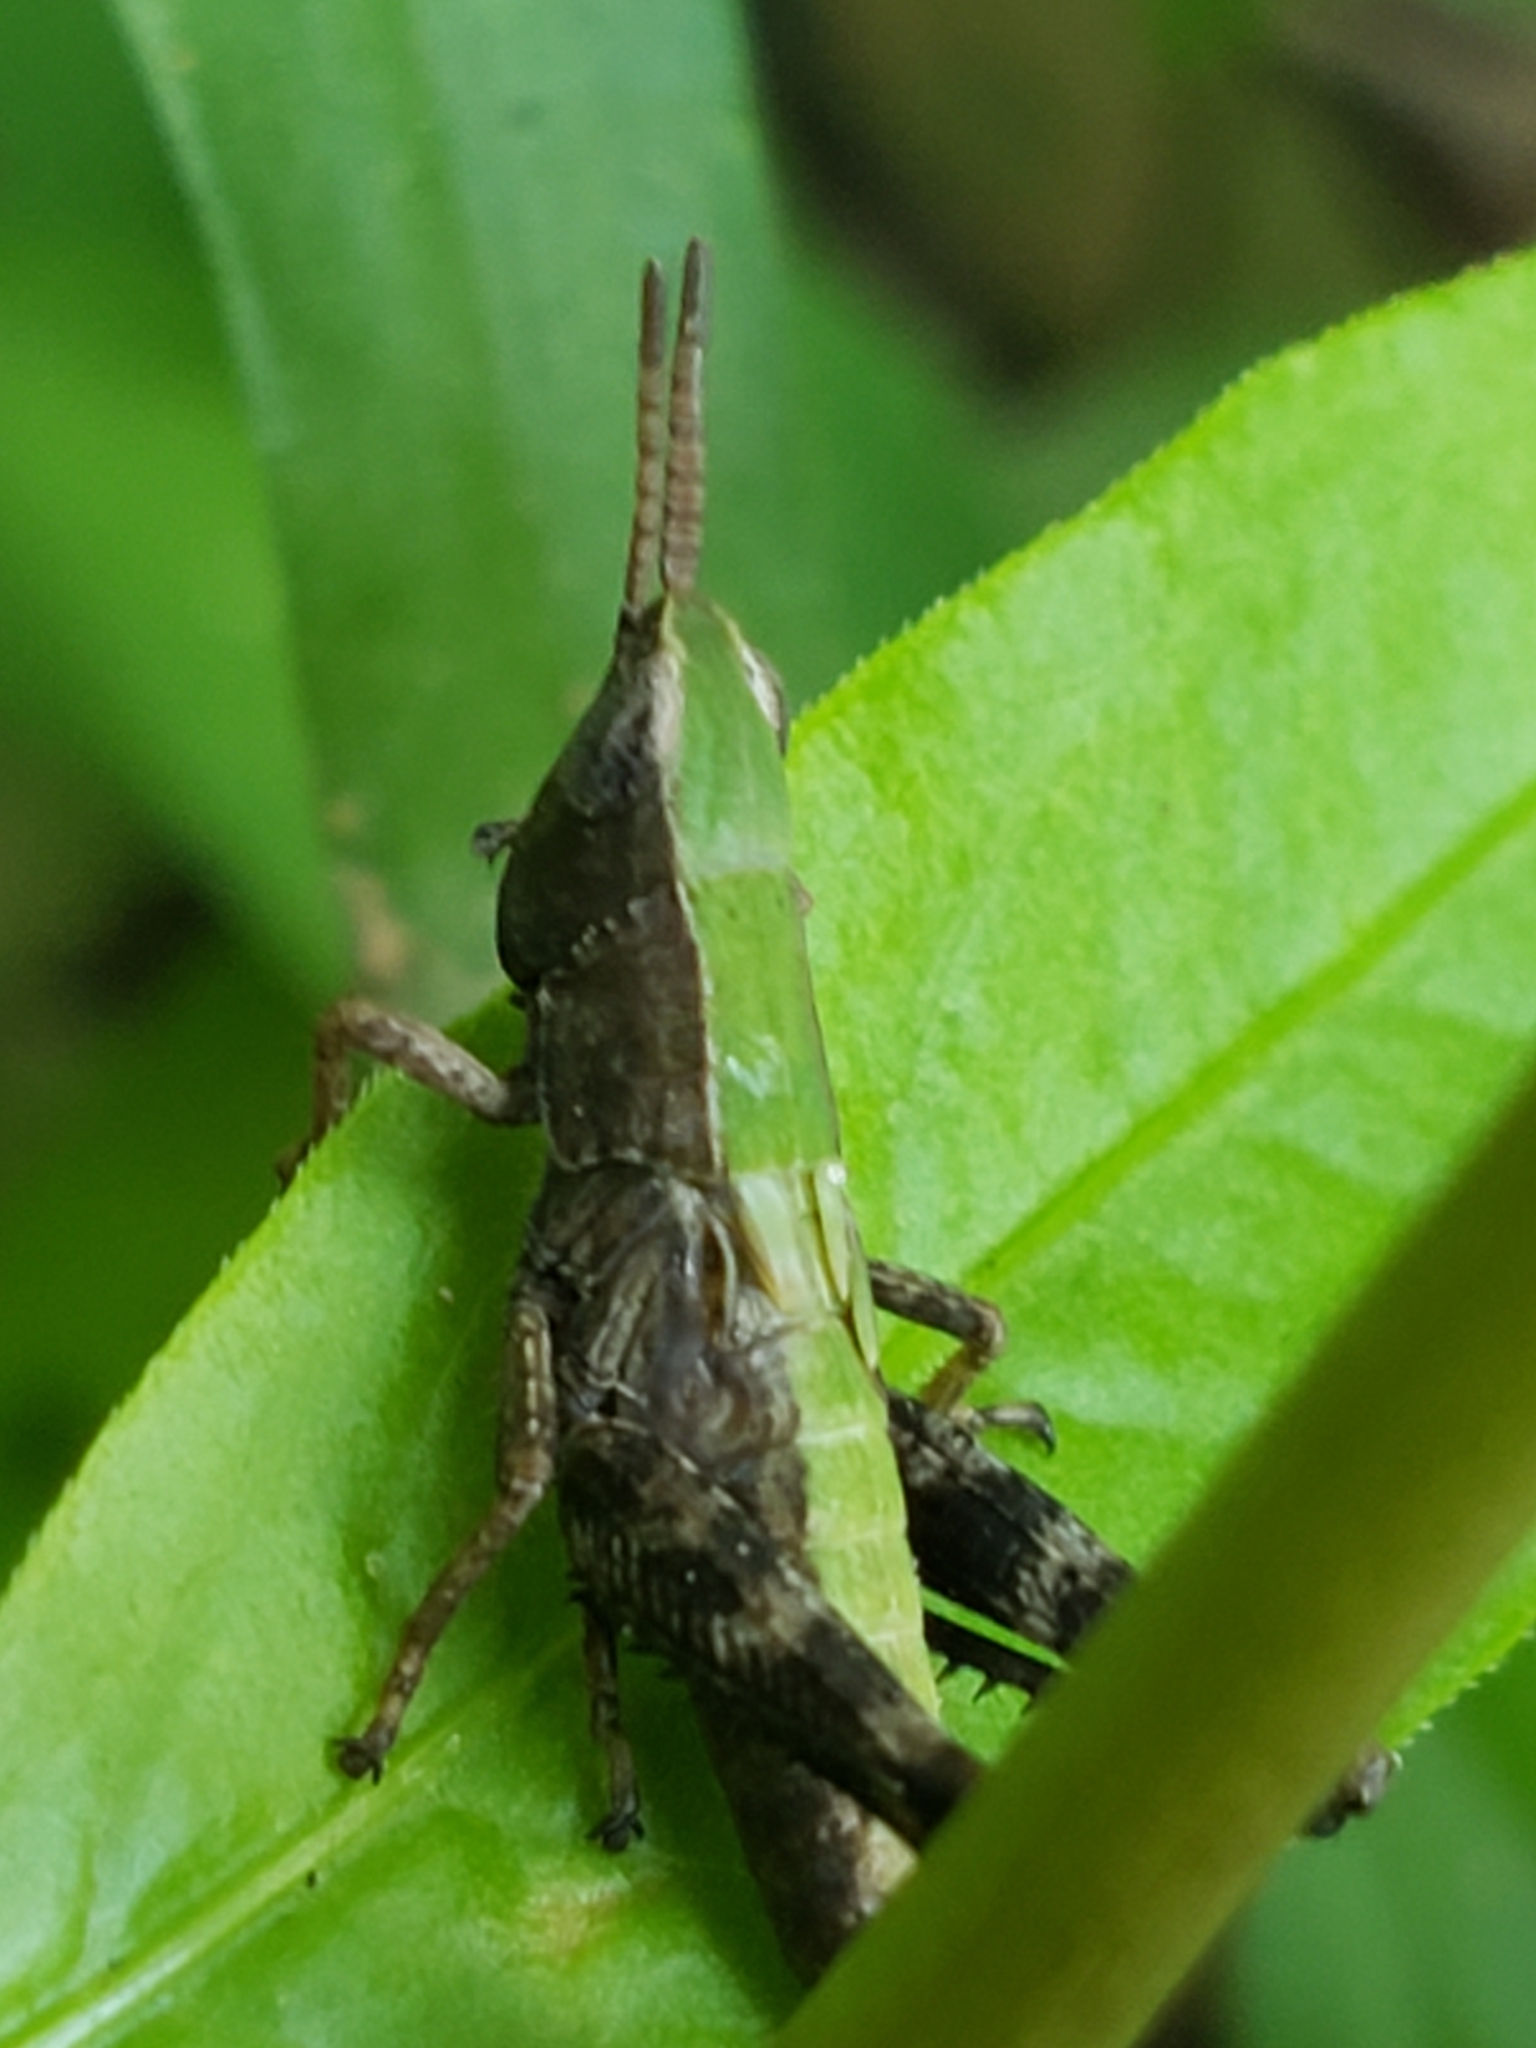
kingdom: Animalia
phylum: Arthropoda
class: Insecta
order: Orthoptera
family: Acrididae
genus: Dichromorpha
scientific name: Dichromorpha viridis
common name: Short-winged green grasshopper
